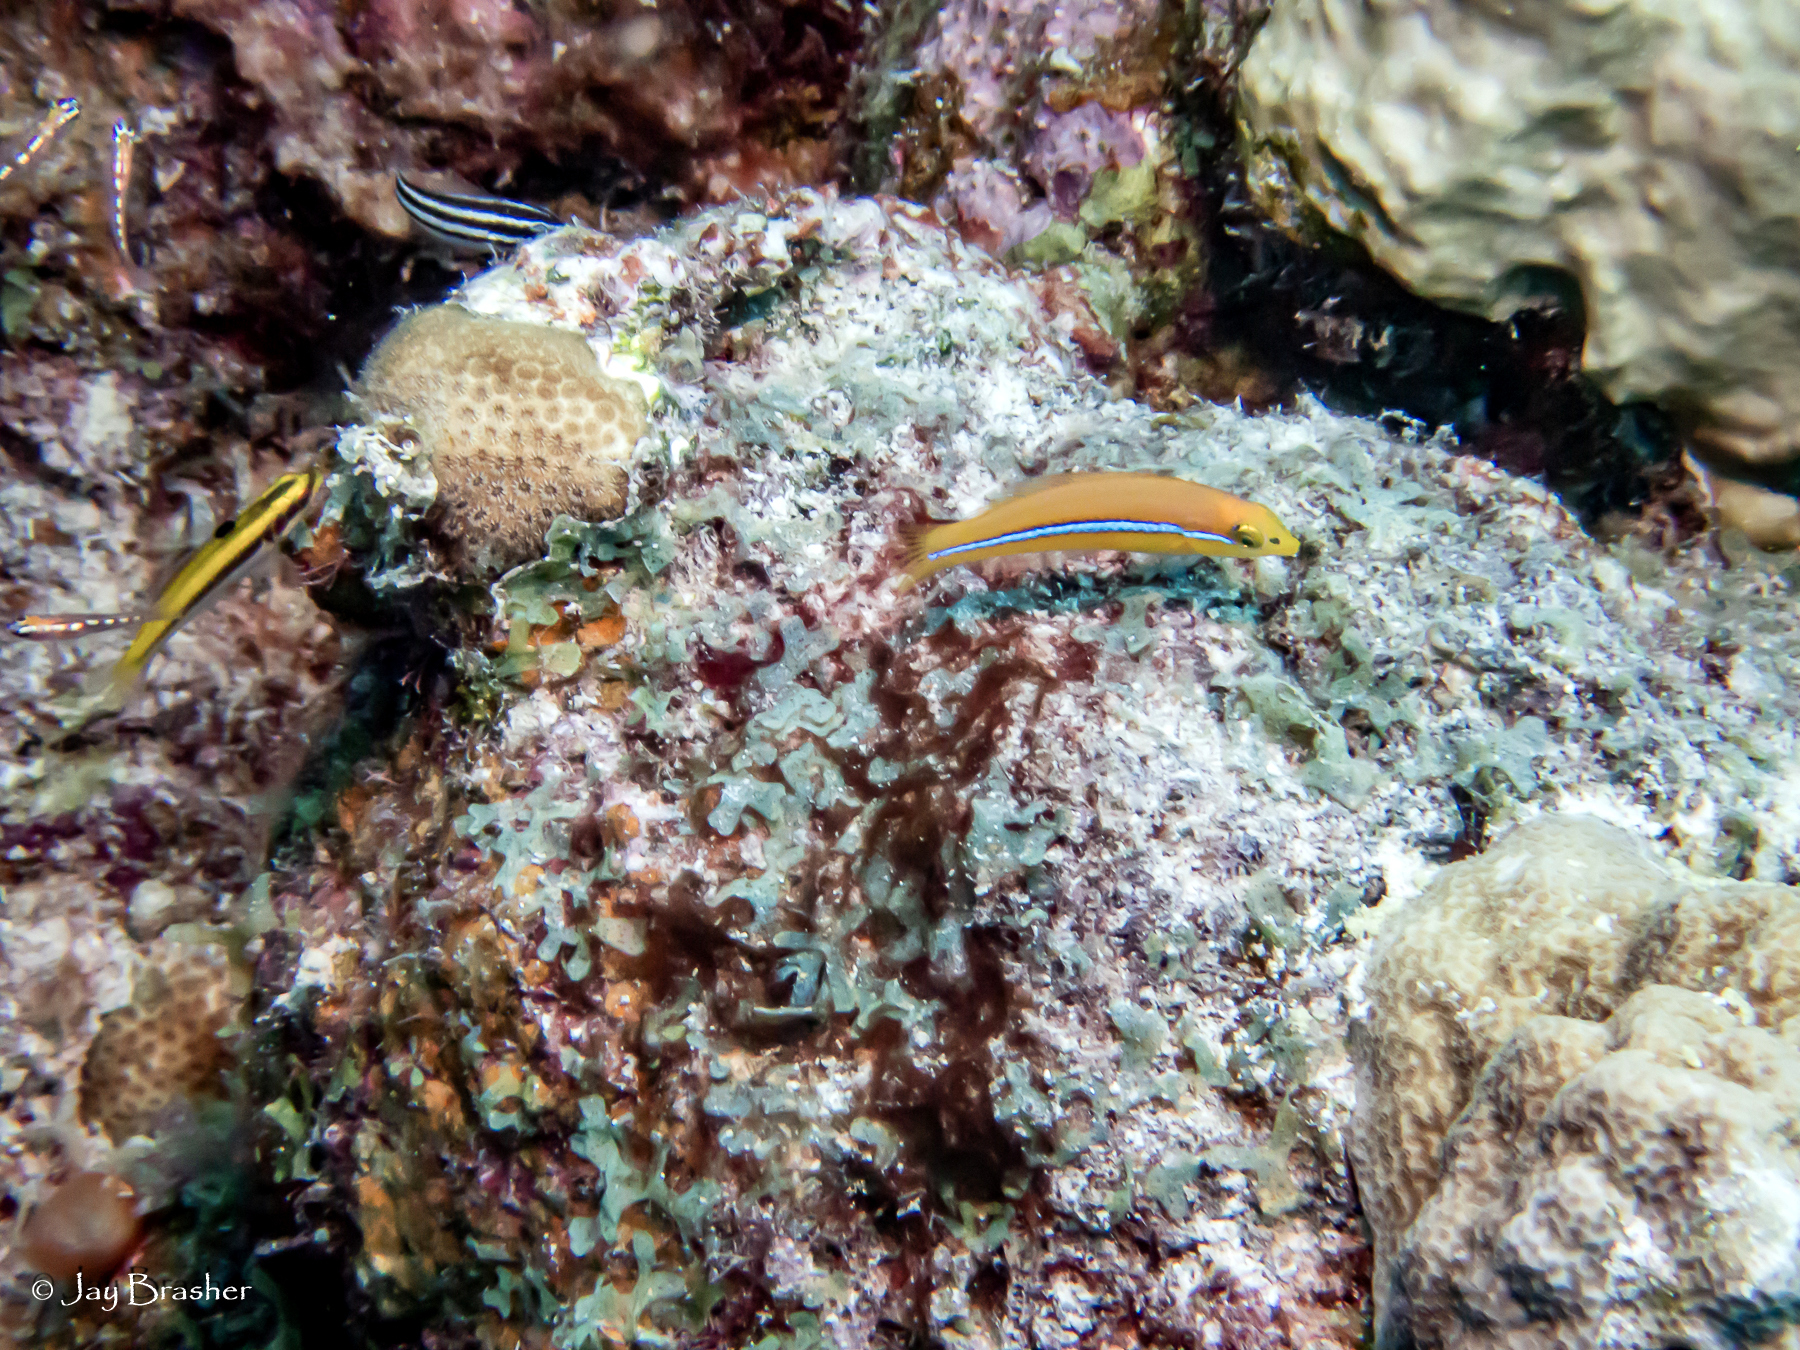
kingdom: Animalia
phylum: Chordata
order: Perciformes
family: Labridae
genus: Thalassoma
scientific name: Thalassoma bifasciatum
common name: Bluehead wrasse
